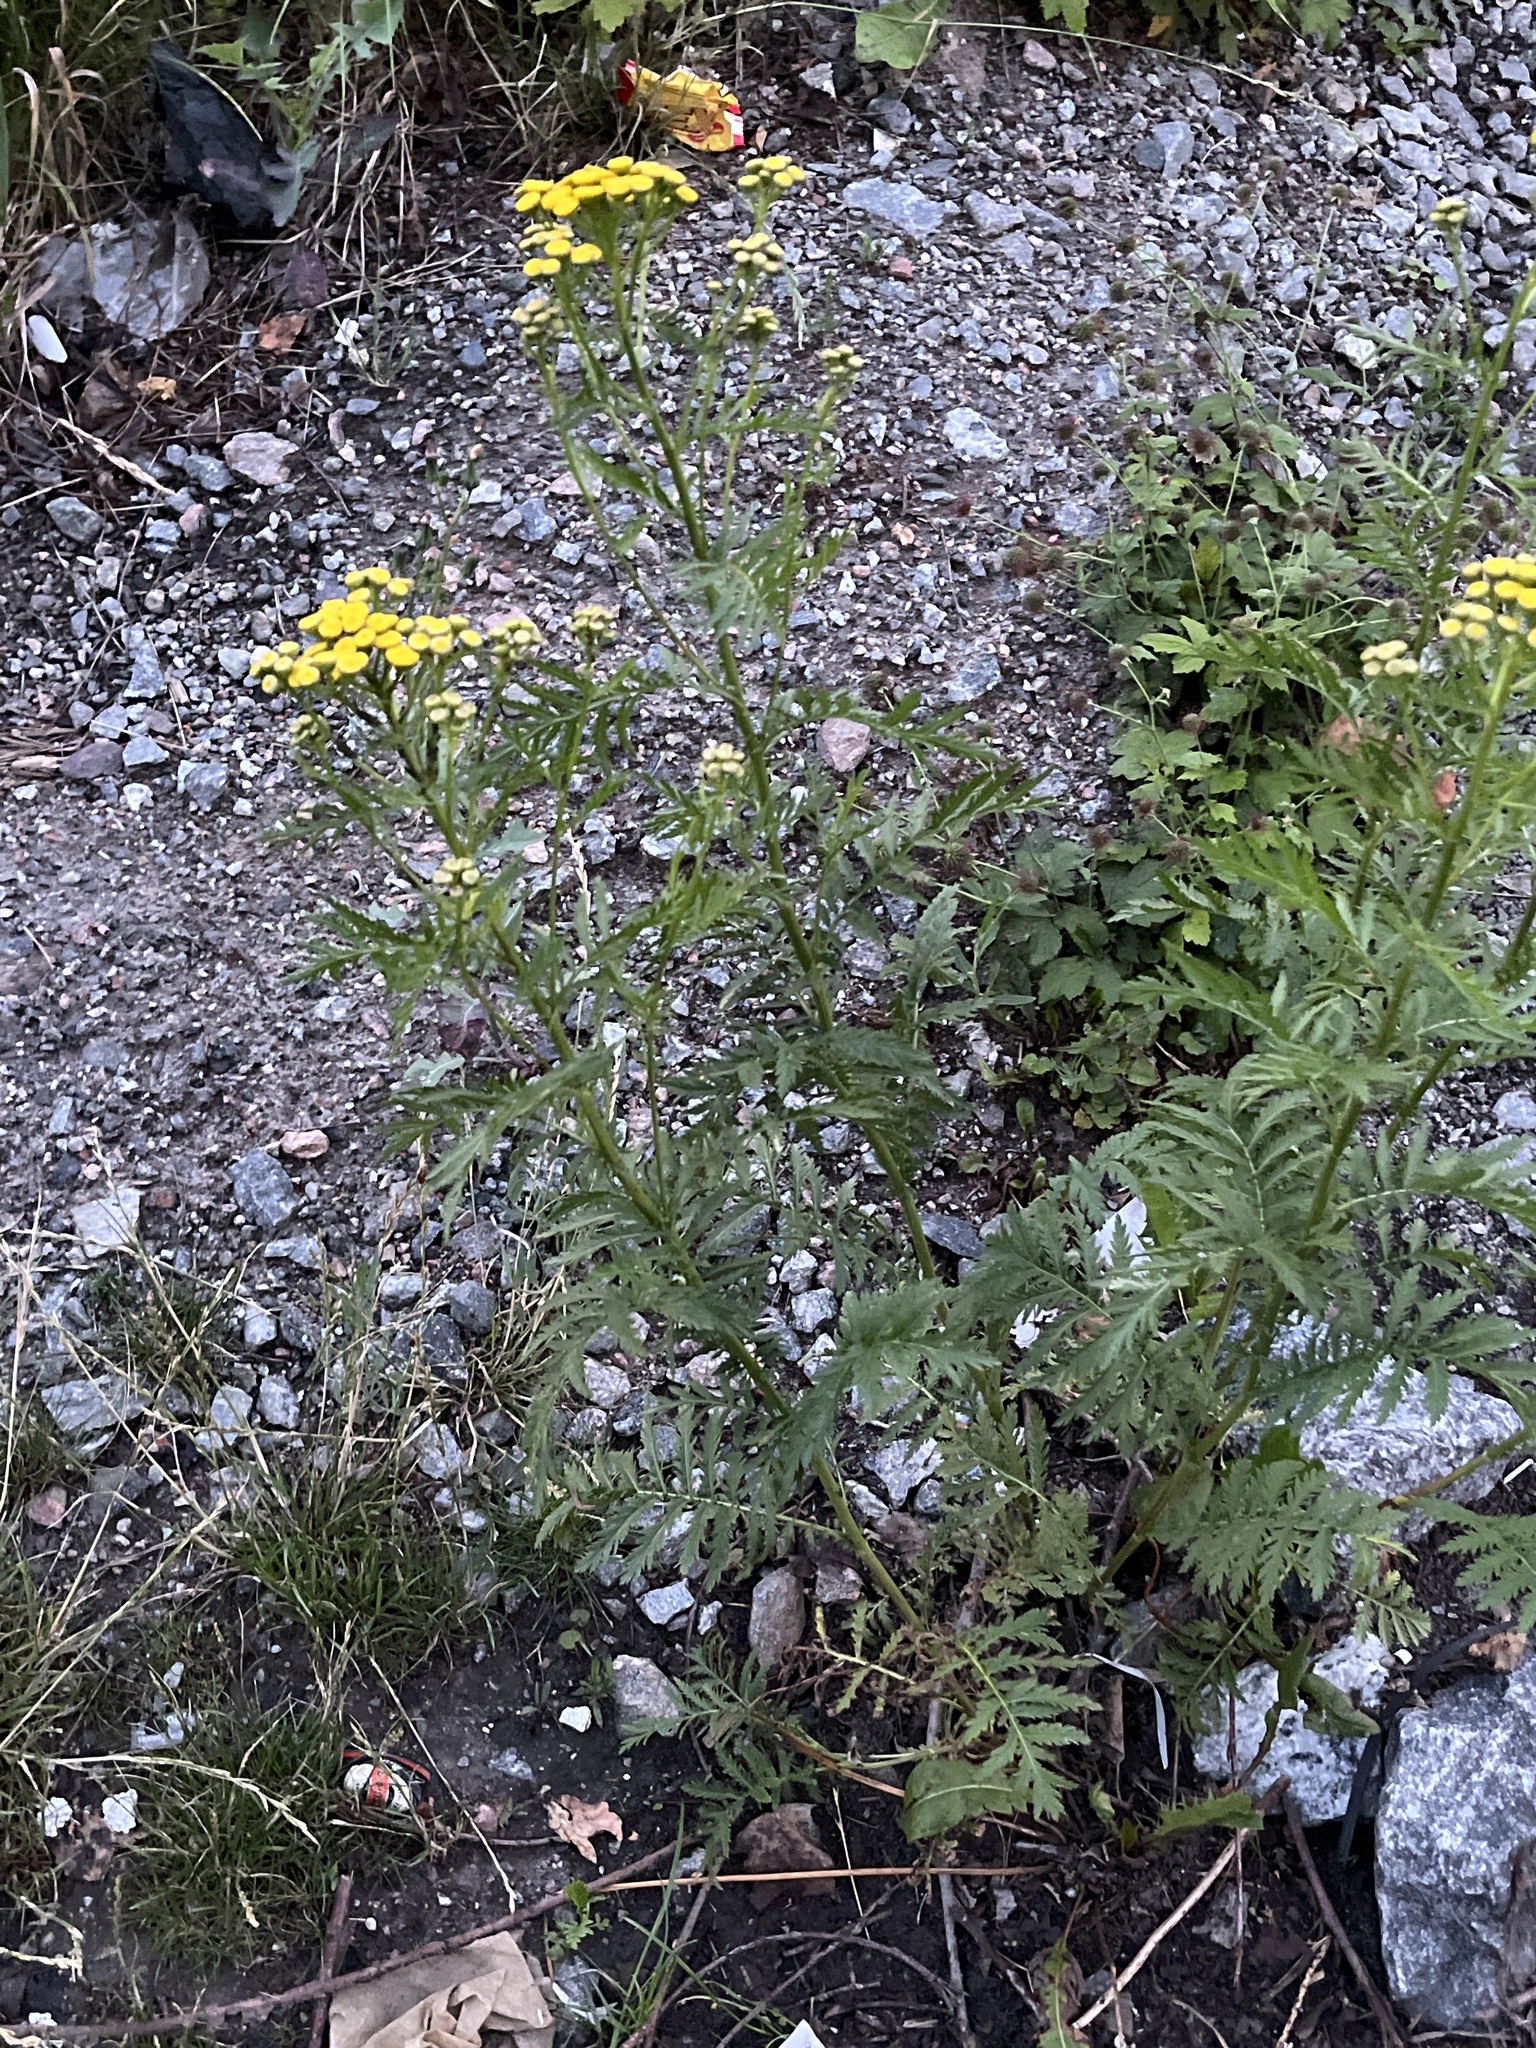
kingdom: Plantae
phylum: Tracheophyta
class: Magnoliopsida
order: Asterales
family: Asteraceae
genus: Tanacetum
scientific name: Tanacetum vulgare
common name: Common tansy
